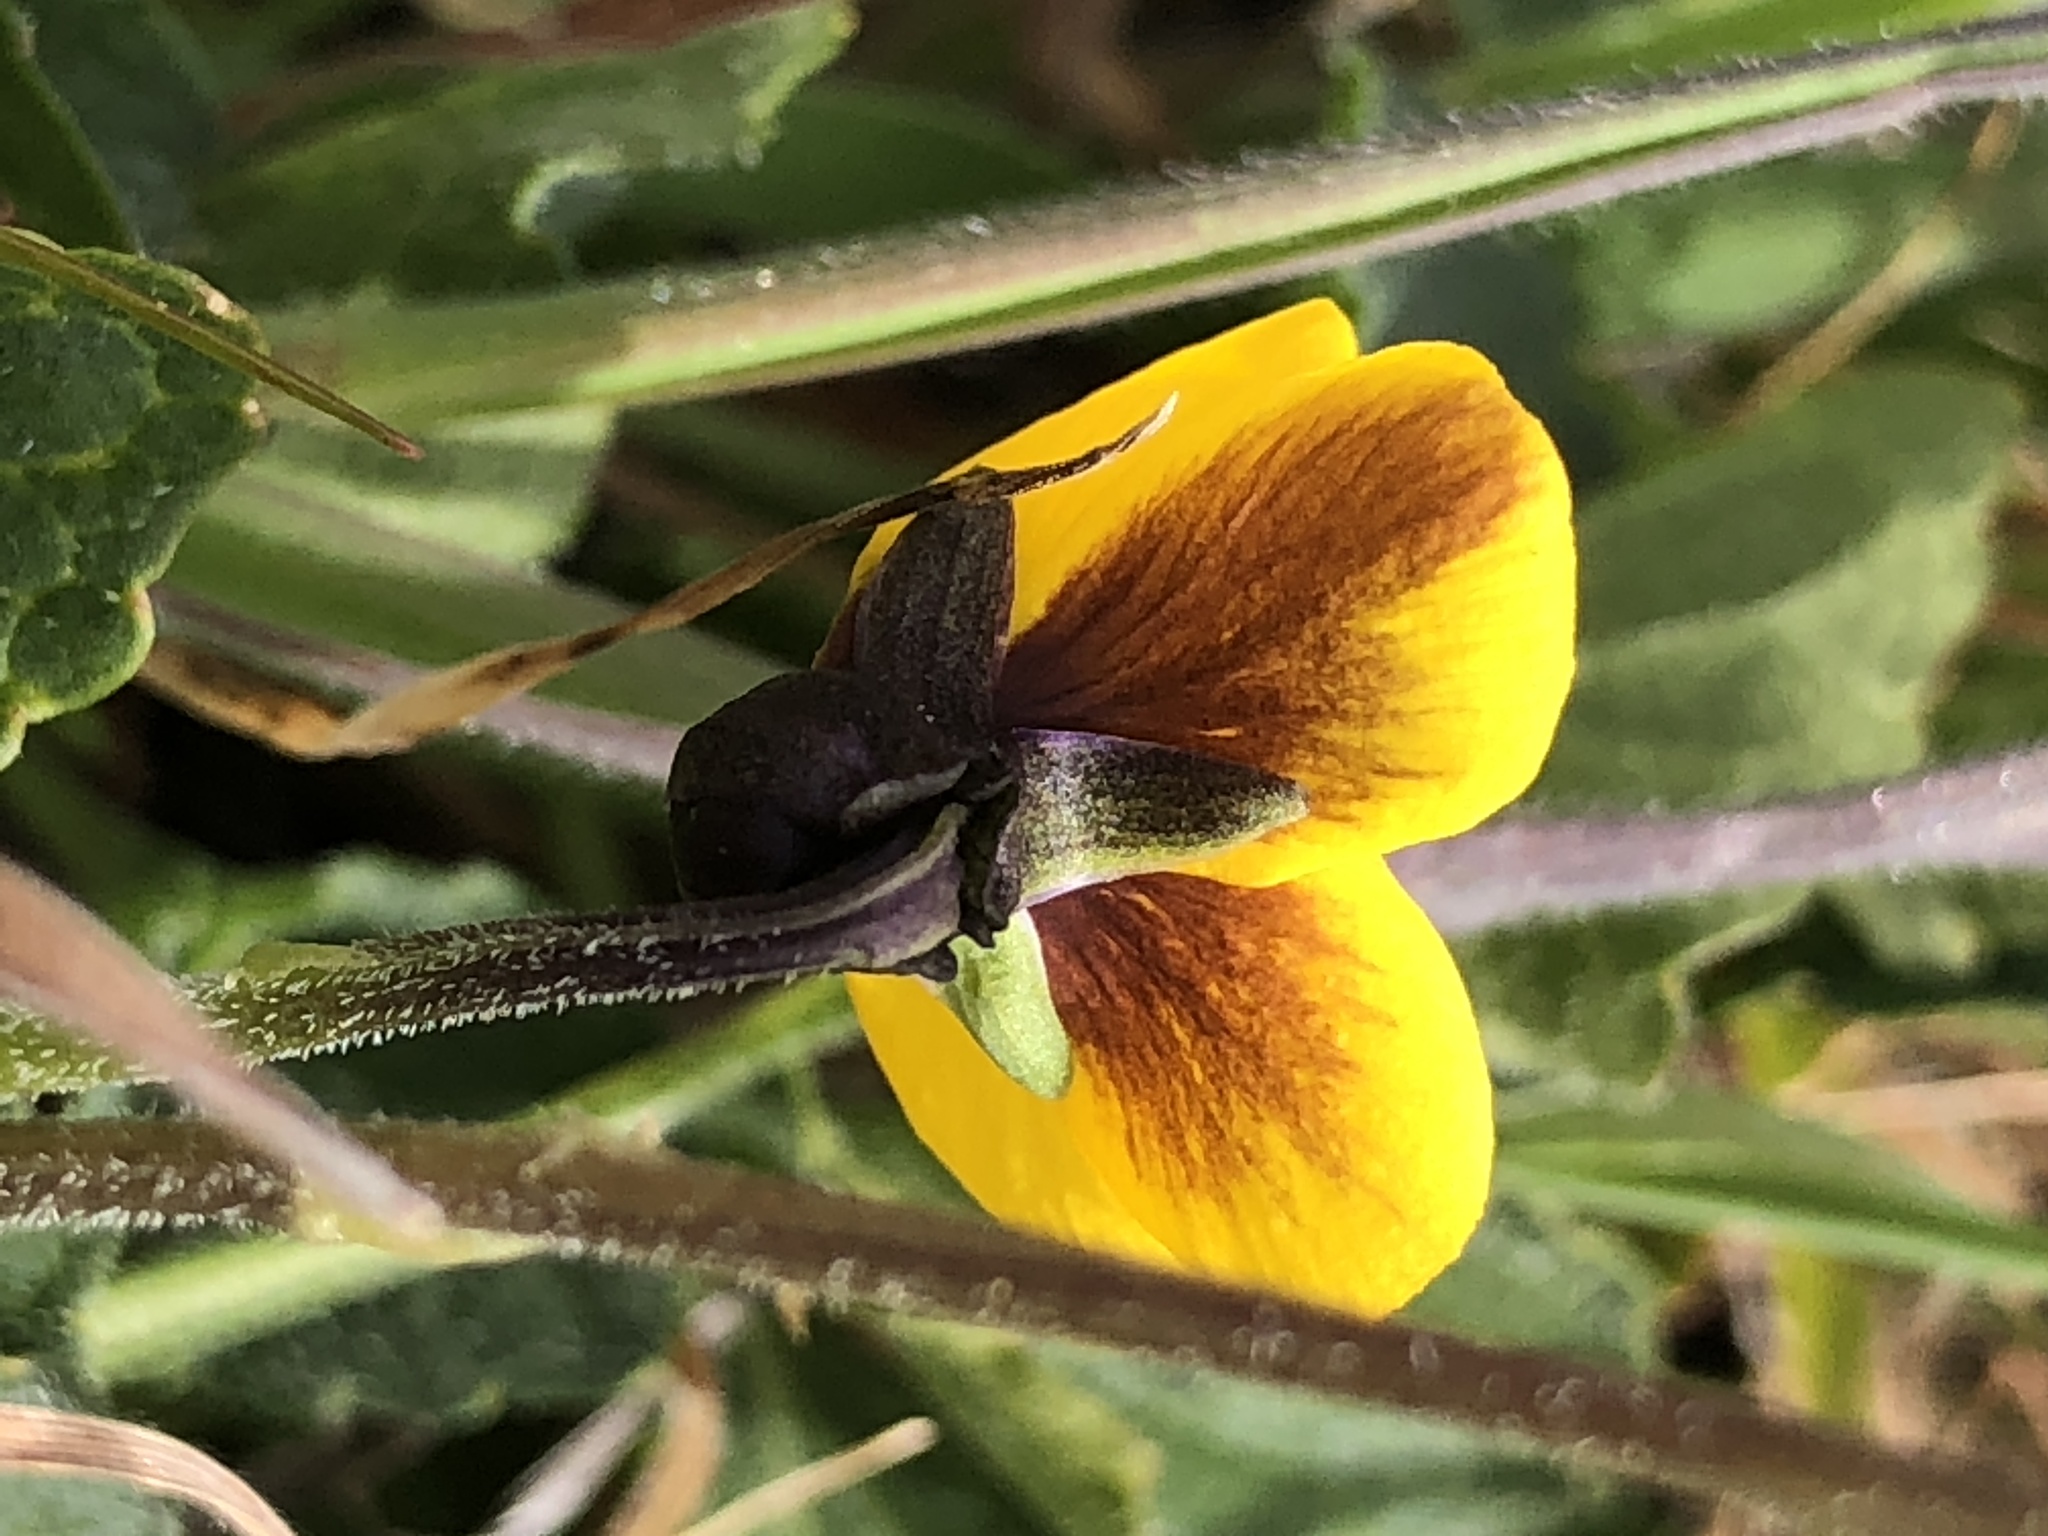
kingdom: Plantae
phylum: Tracheophyta
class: Magnoliopsida
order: Malpighiales
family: Violaceae
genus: Viola
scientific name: Viola pedunculata
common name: California golden violet
